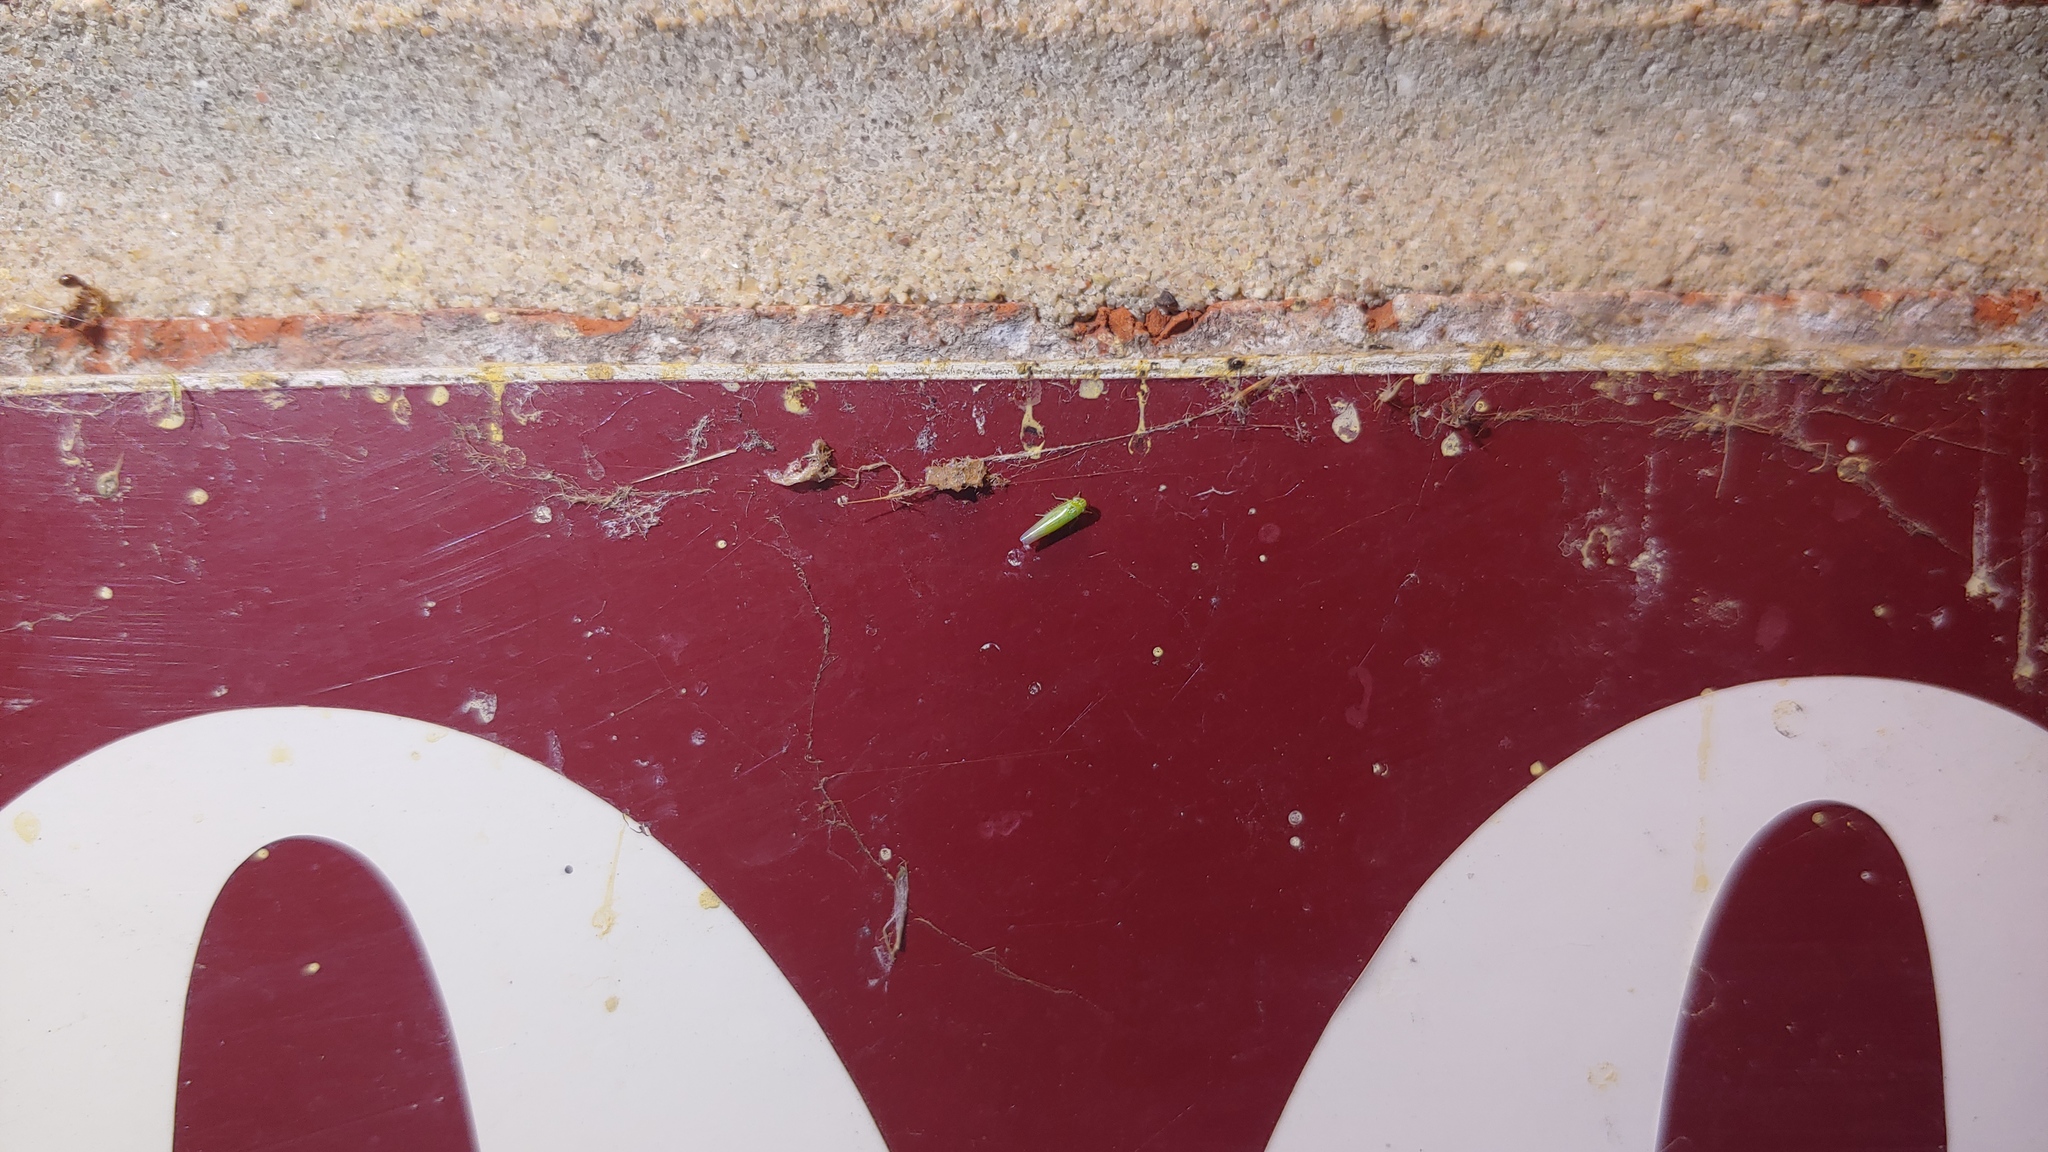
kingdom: Animalia
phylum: Arthropoda
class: Insecta
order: Hemiptera
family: Cicadellidae
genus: Empoasca
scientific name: Empoasca fabae
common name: Potato leafhopper
